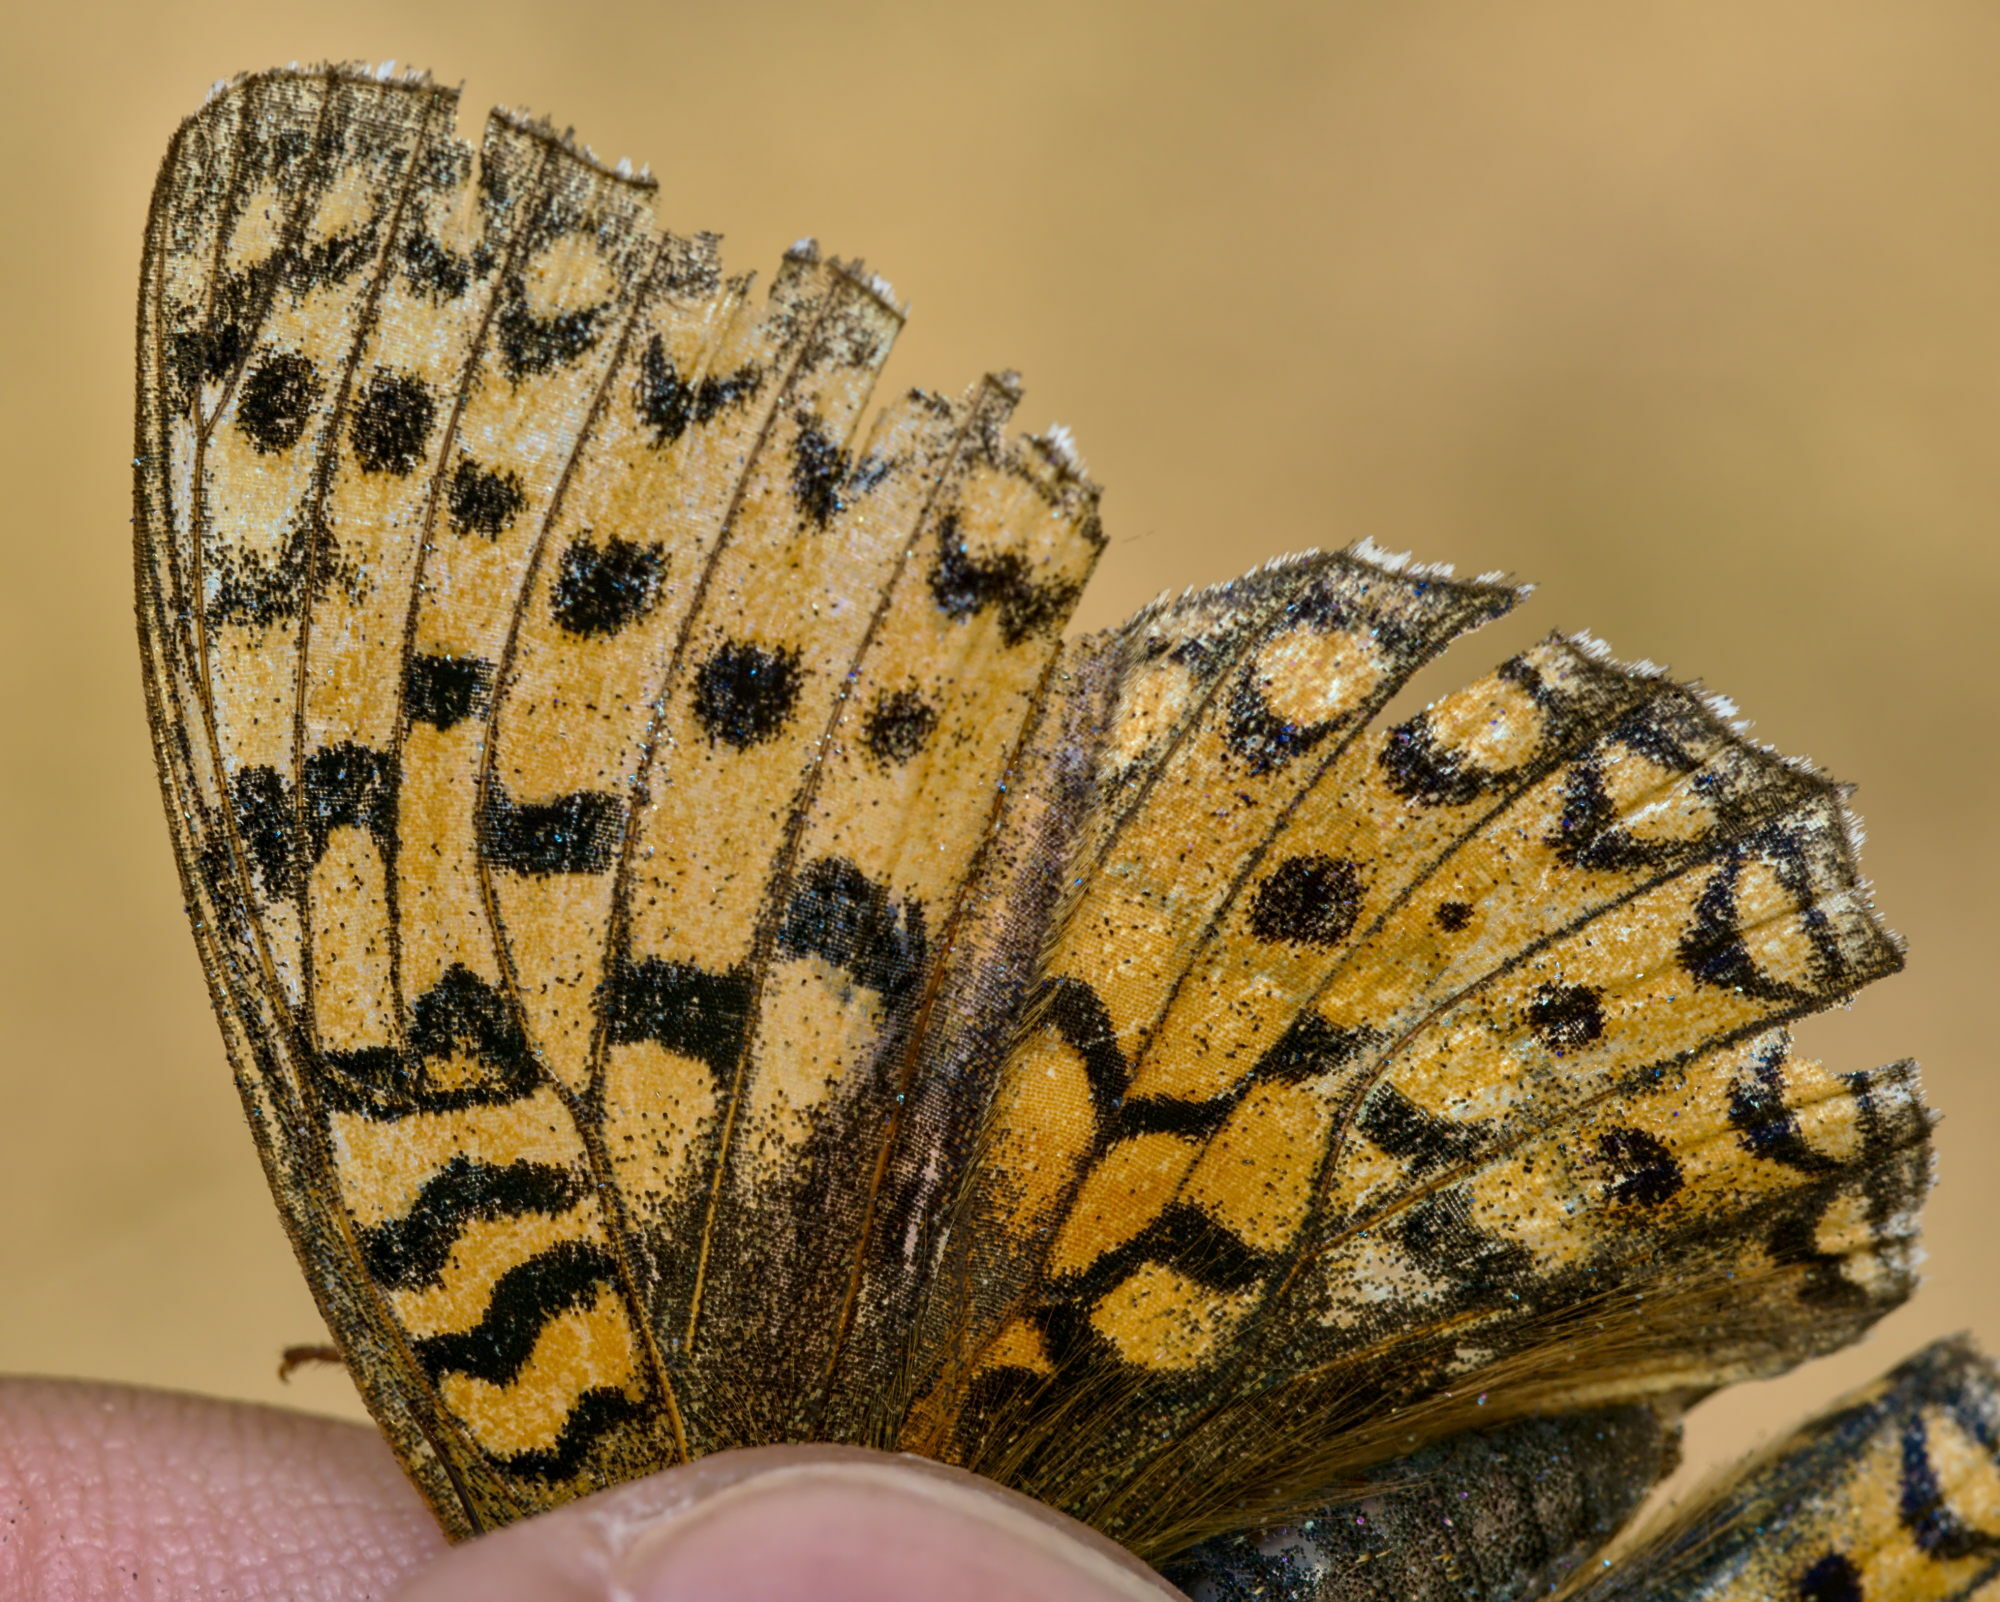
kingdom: Animalia
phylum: Arthropoda
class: Insecta
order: Lepidoptera
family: Nymphalidae
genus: Fabriciana
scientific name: Fabriciana niobe
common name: Niobe fritillary
